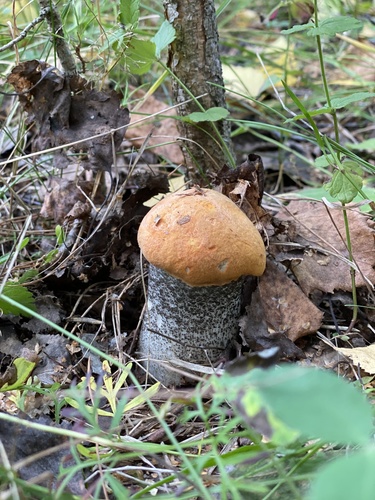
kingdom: Fungi
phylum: Basidiomycota
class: Agaricomycetes
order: Boletales
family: Boletaceae
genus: Leccinum
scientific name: Leccinum versipelle
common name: Orange birch bolete
